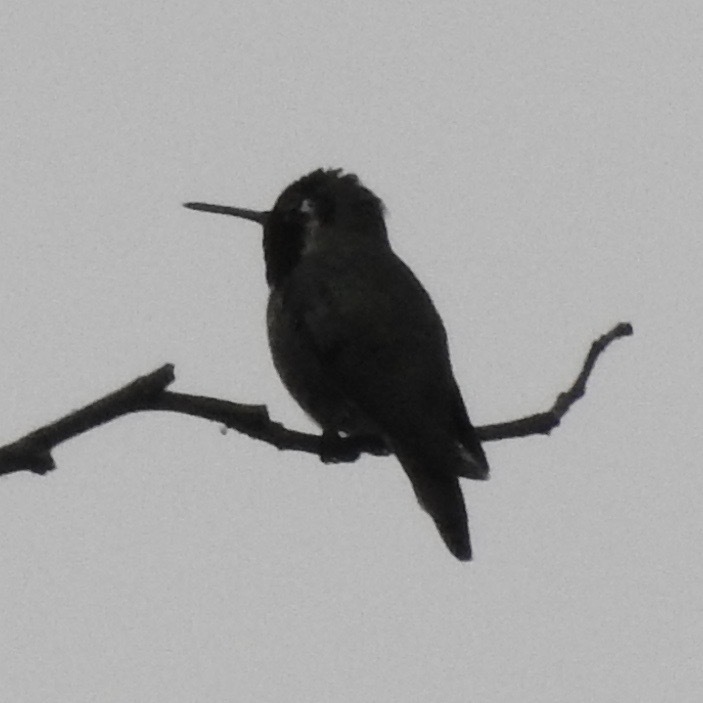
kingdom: Animalia
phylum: Chordata
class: Aves
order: Apodiformes
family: Trochilidae
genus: Calypte
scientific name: Calypte anna
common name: Anna's hummingbird
